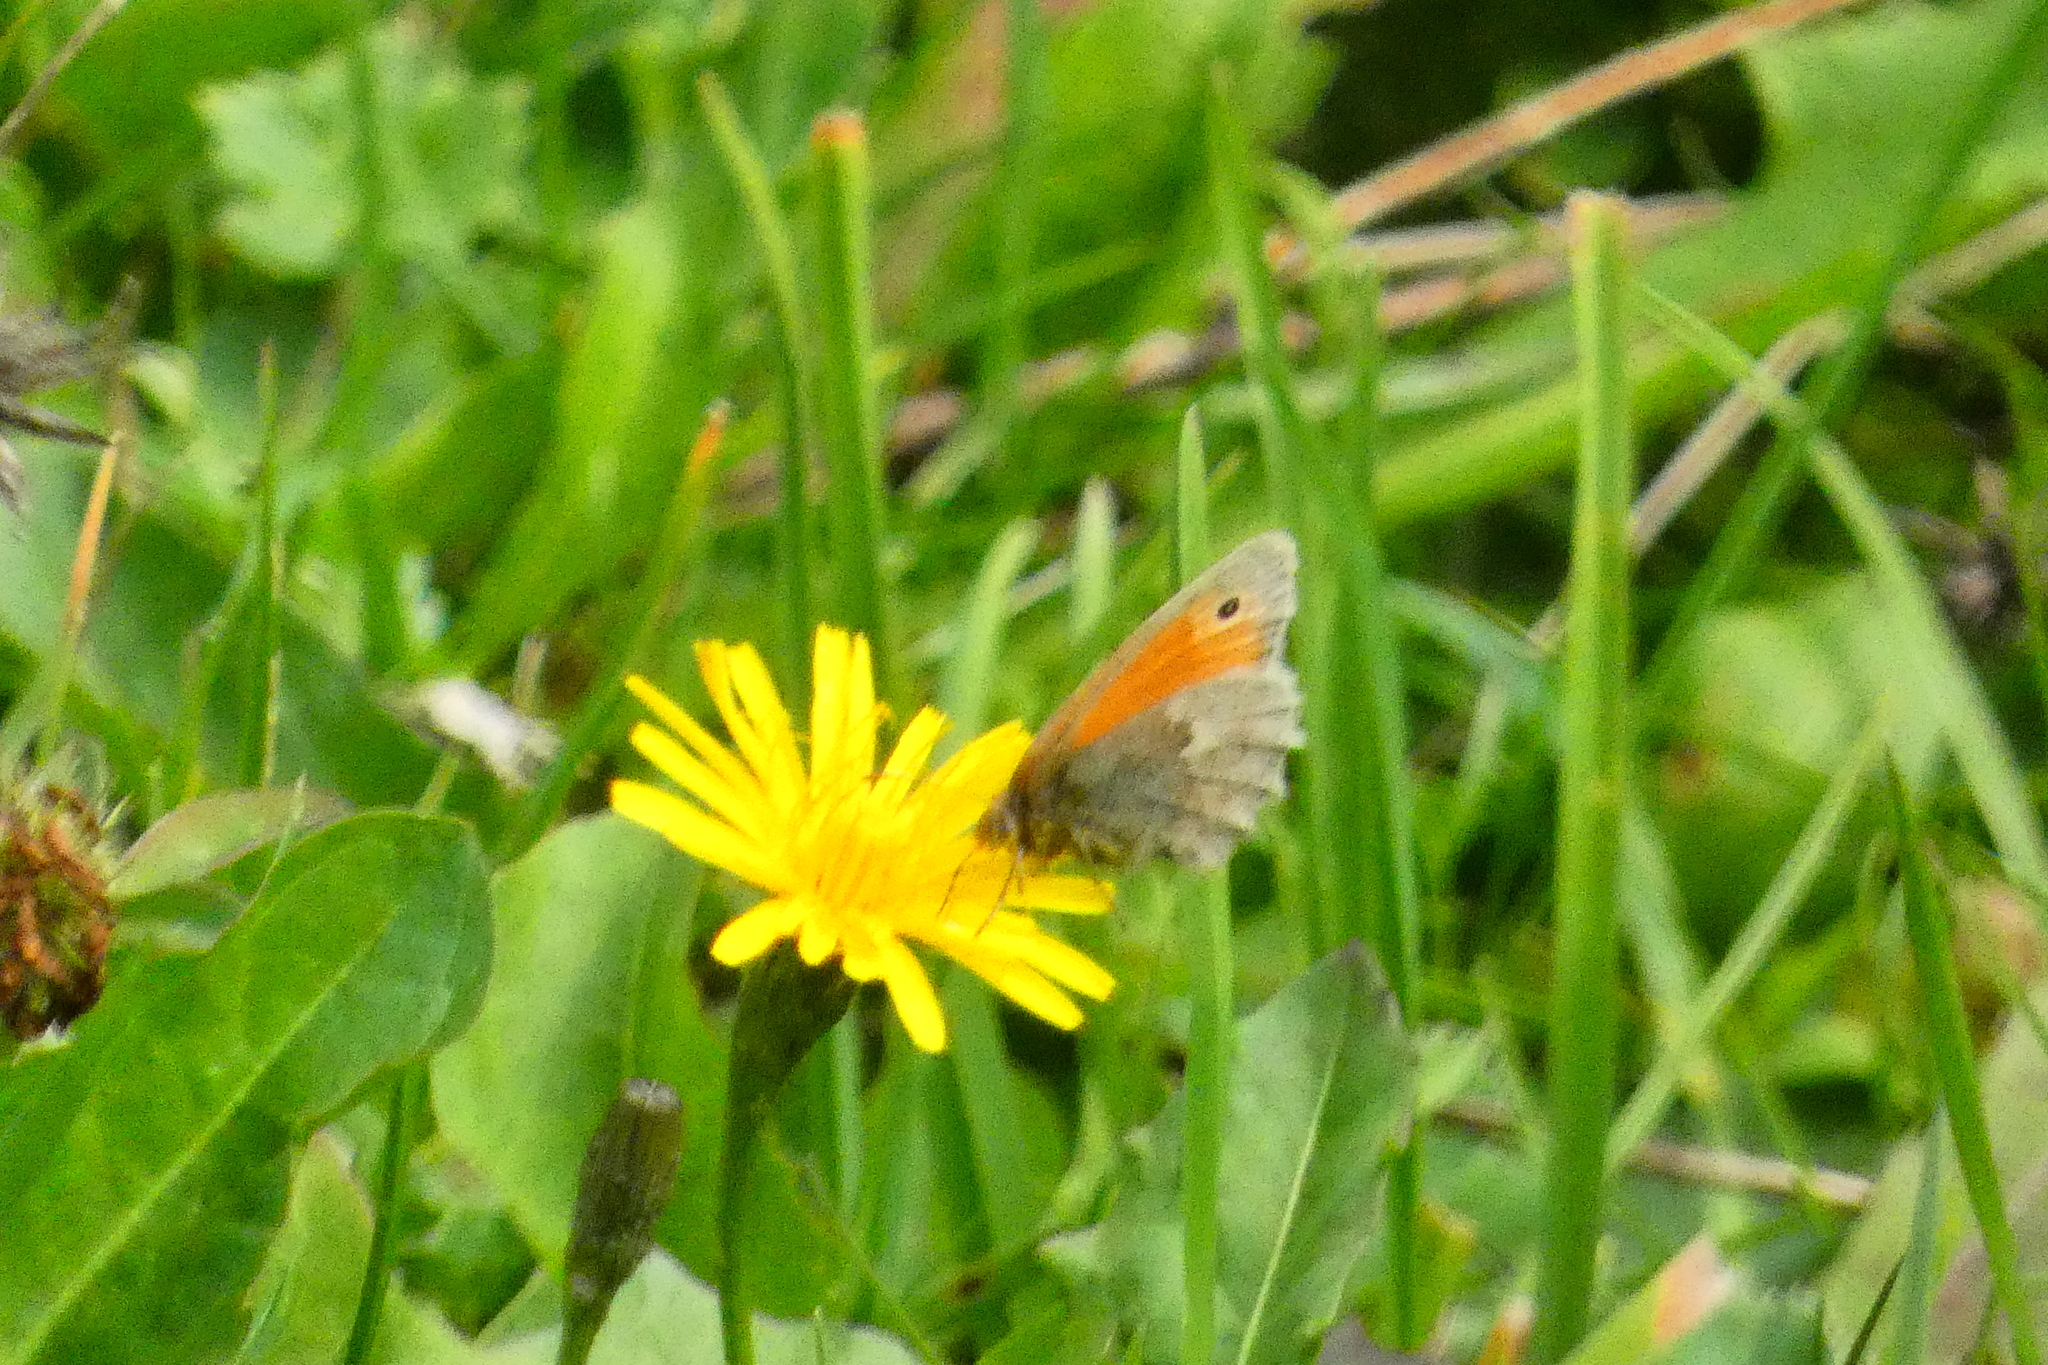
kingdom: Animalia
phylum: Arthropoda
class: Insecta
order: Lepidoptera
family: Nymphalidae
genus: Coenonympha
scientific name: Coenonympha pamphilus
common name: Small heath
